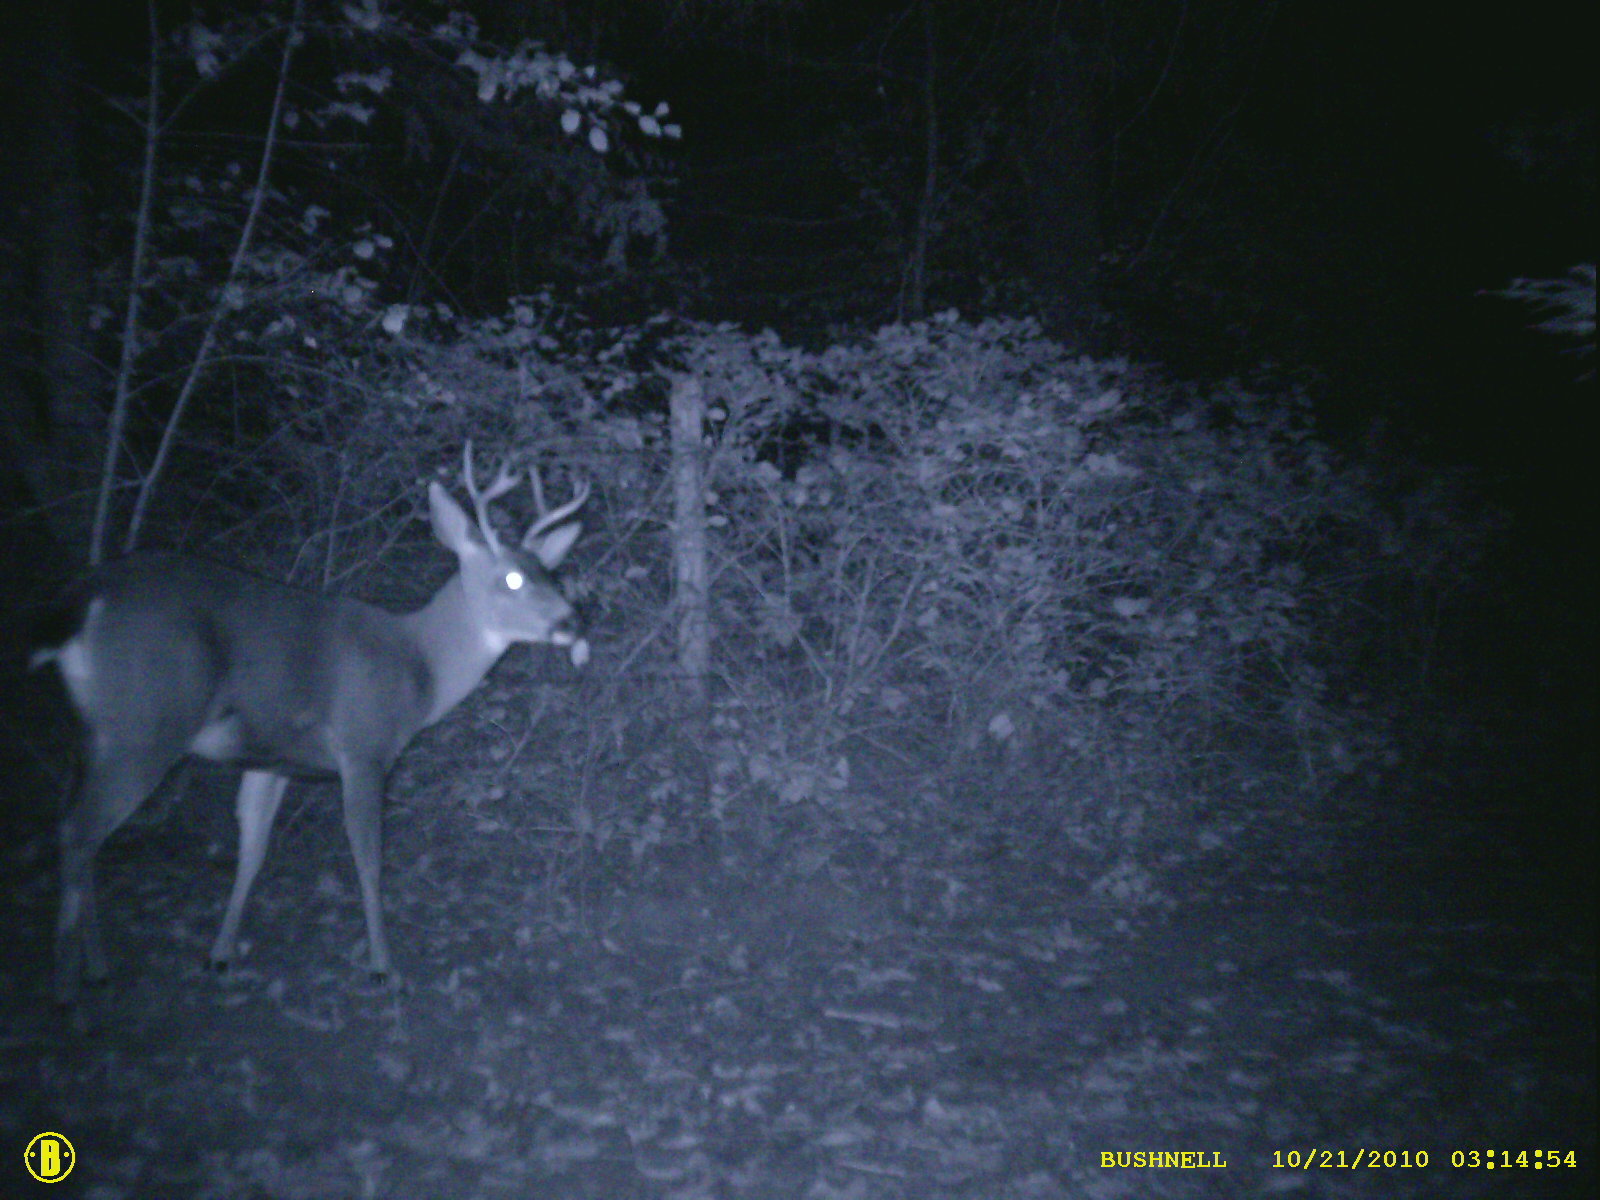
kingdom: Animalia
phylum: Chordata
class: Mammalia
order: Artiodactyla
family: Cervidae
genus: Odocoileus
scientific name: Odocoileus hemionus
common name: Mule deer
